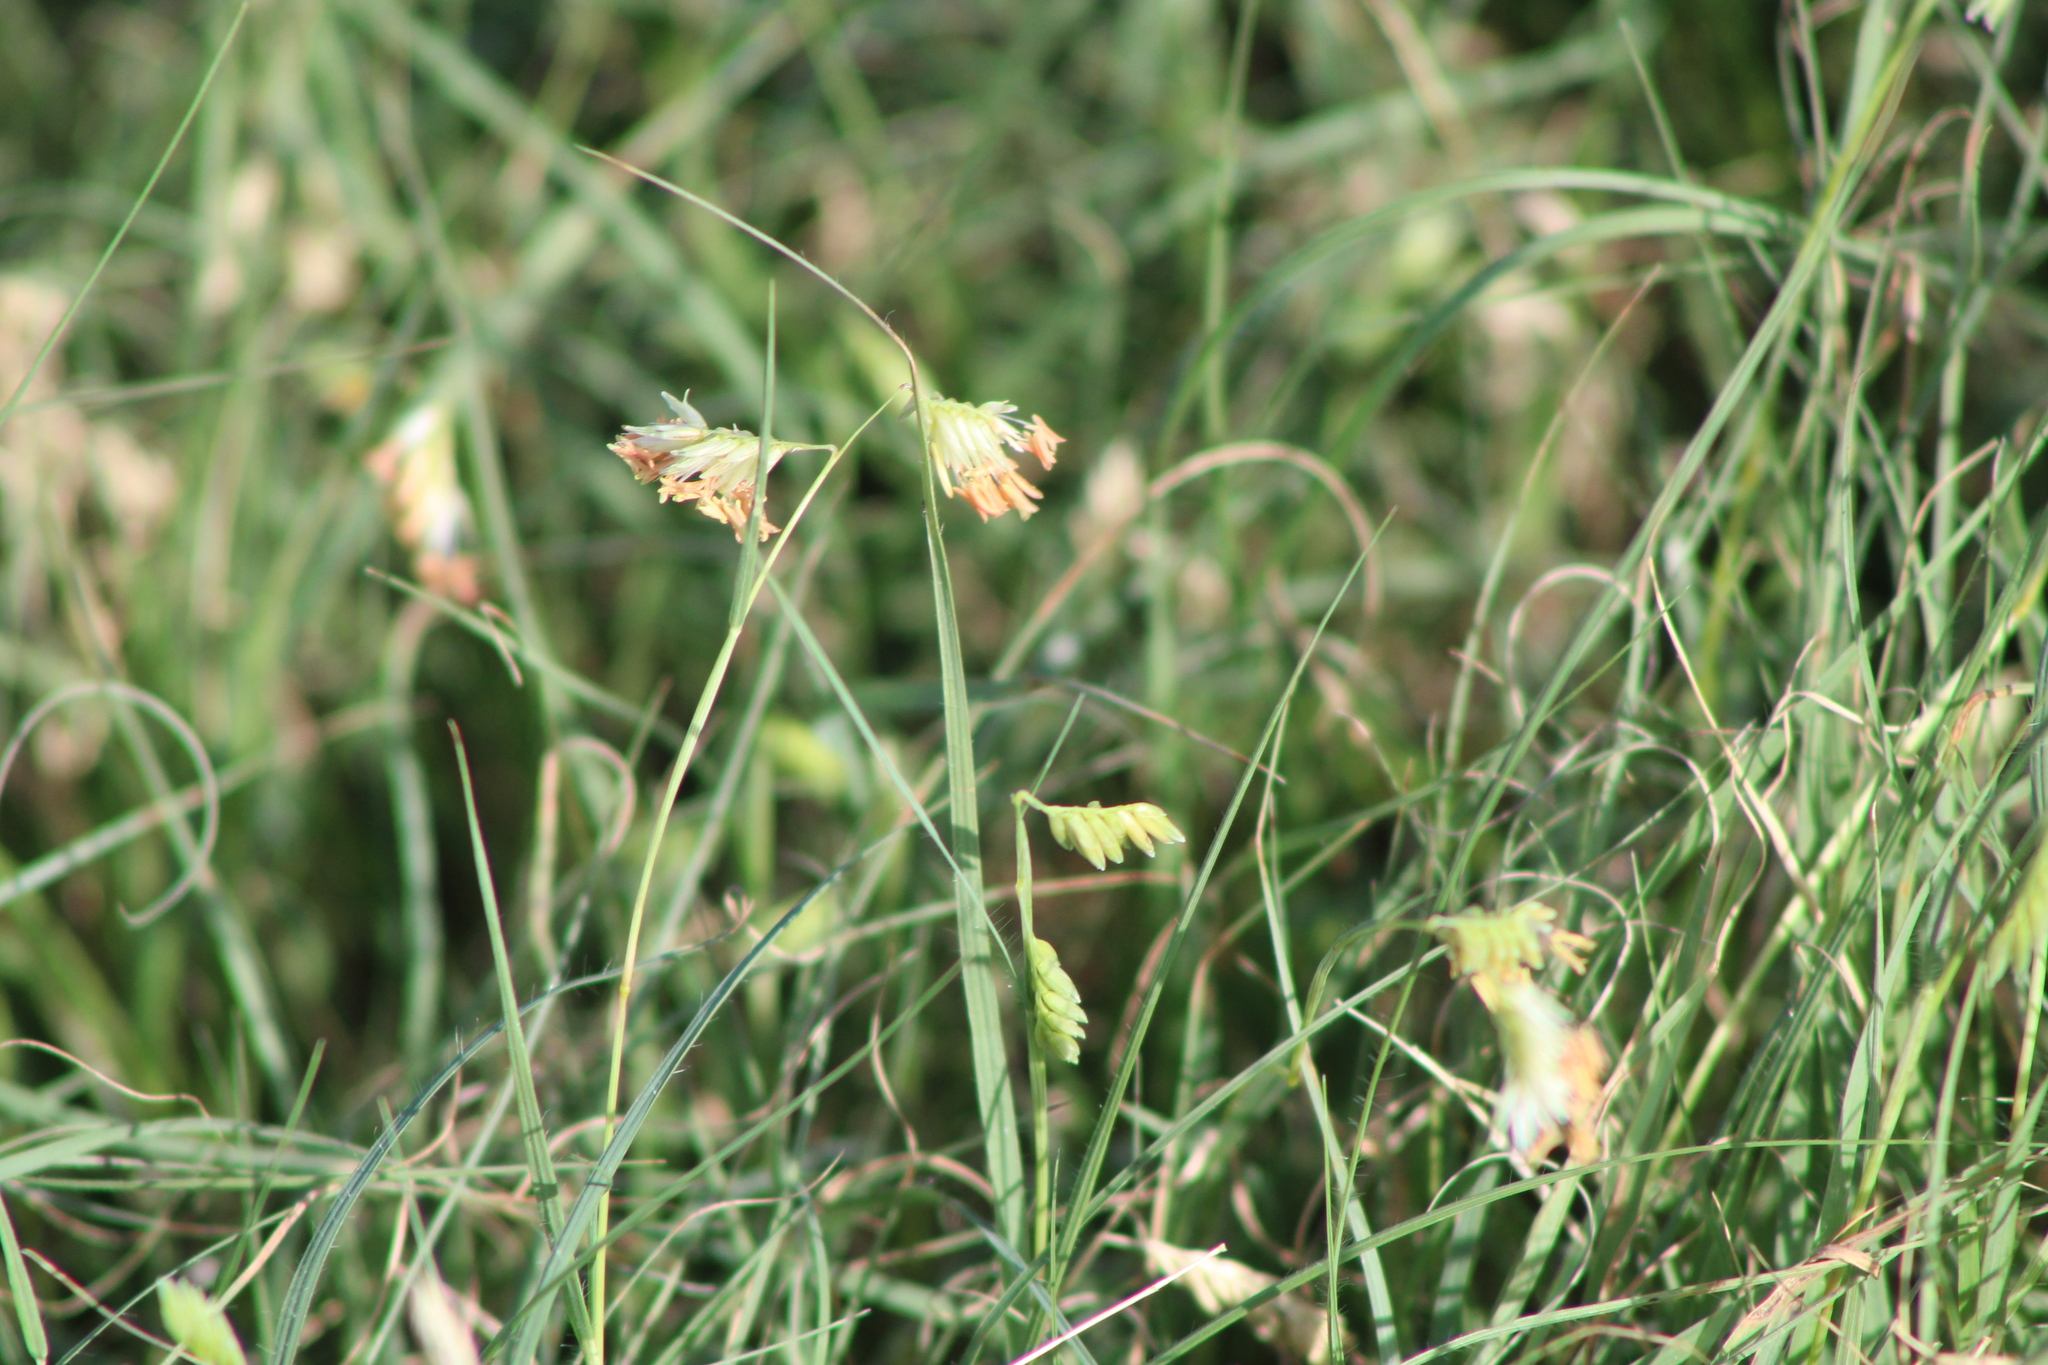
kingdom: Plantae
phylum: Tracheophyta
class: Liliopsida
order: Poales
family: Poaceae
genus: Bouteloua
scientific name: Bouteloua dactyloides
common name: Buffalo grass
